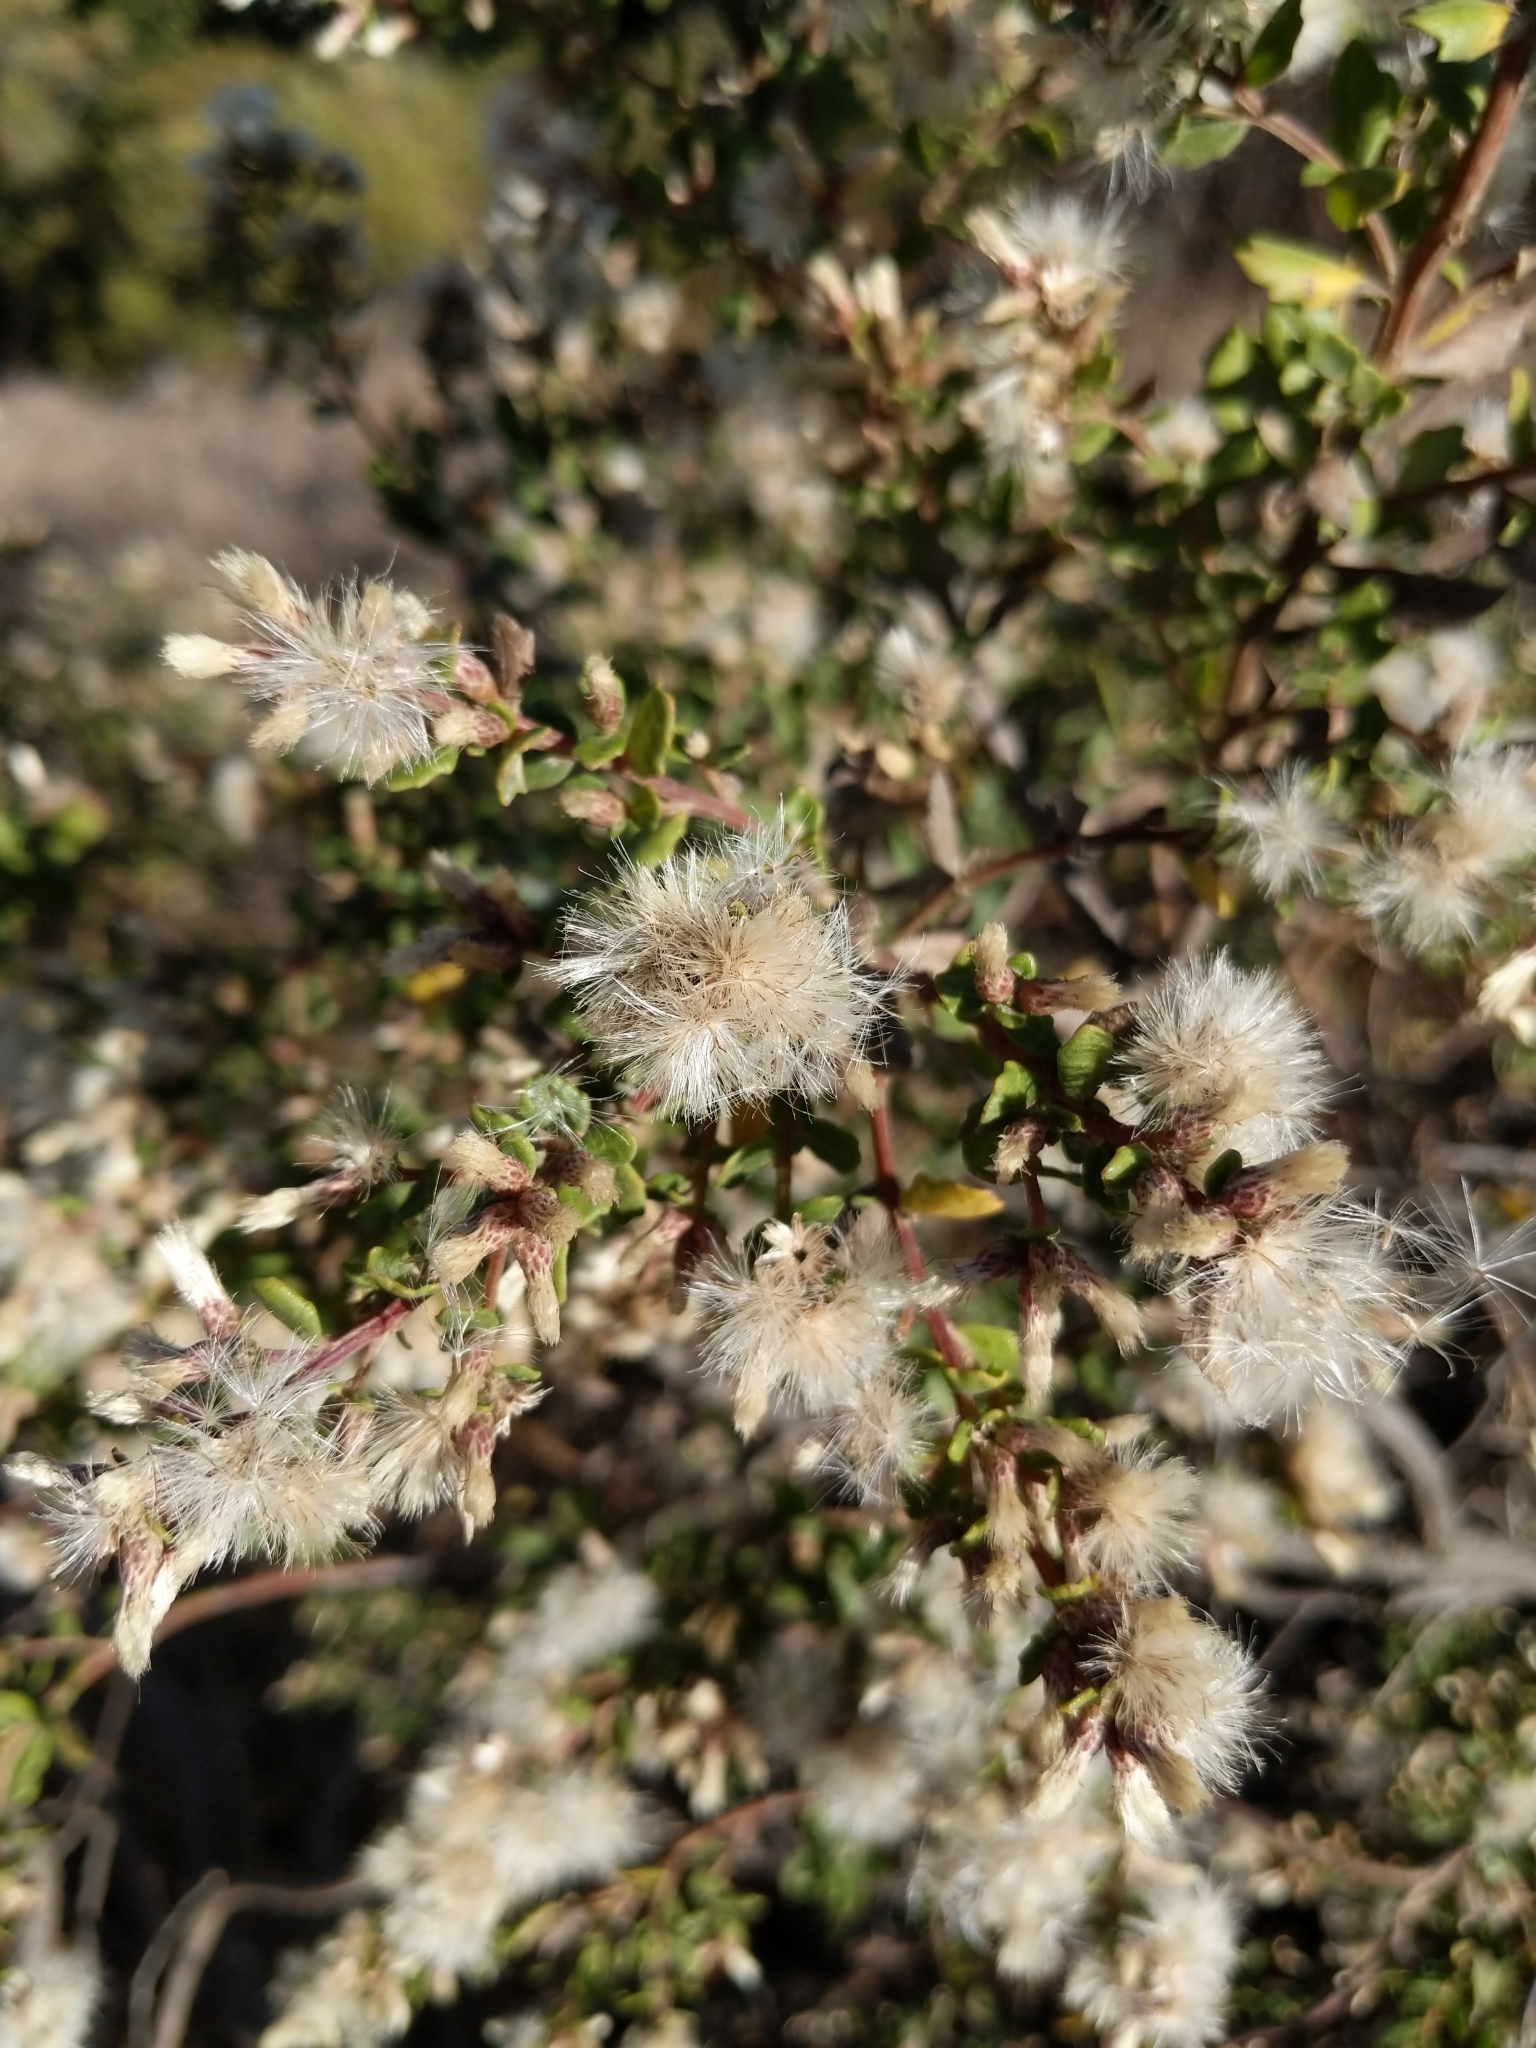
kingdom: Plantae
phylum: Tracheophyta
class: Magnoliopsida
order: Asterales
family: Asteraceae
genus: Baccharis
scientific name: Baccharis pilularis
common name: Coyotebrush
